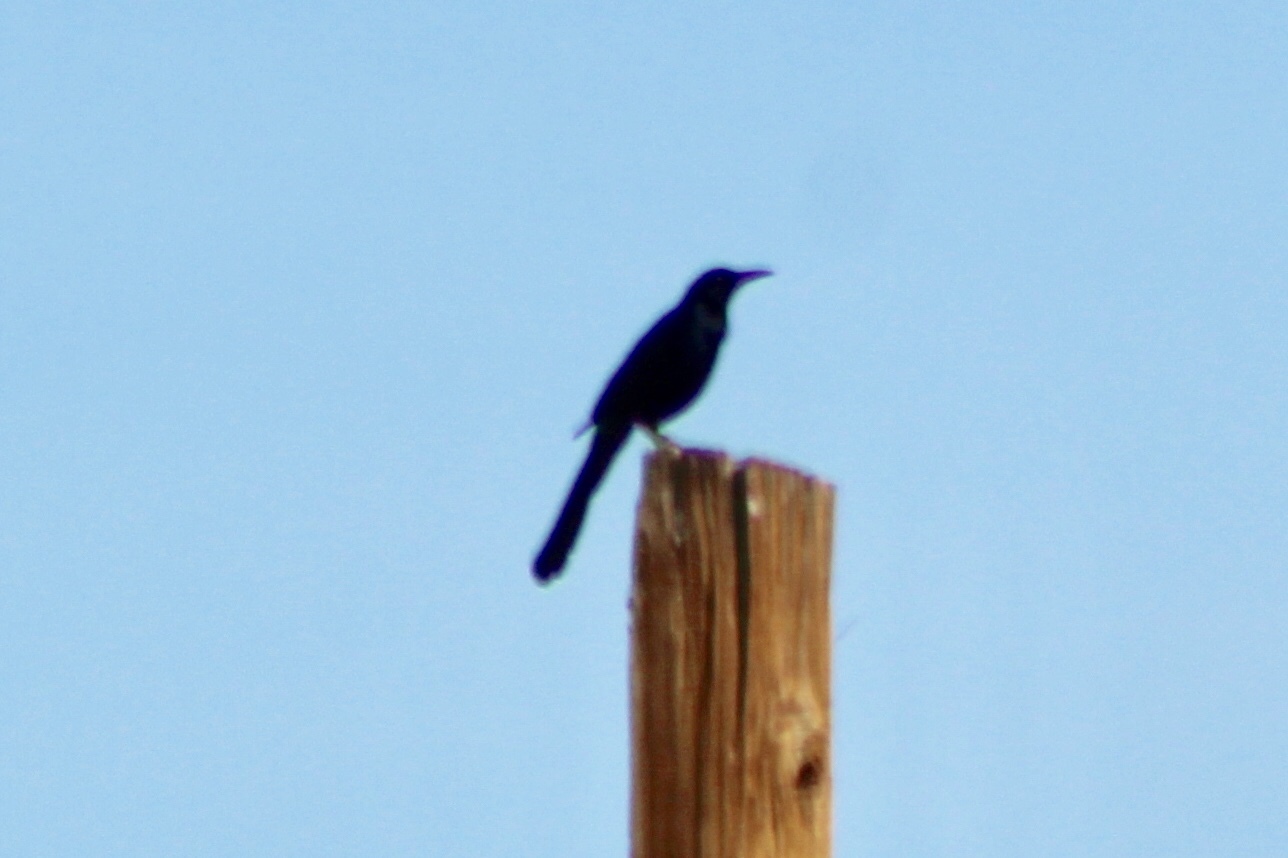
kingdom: Animalia
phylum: Chordata
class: Aves
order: Passeriformes
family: Icteridae
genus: Quiscalus
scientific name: Quiscalus mexicanus
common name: Great-tailed grackle
